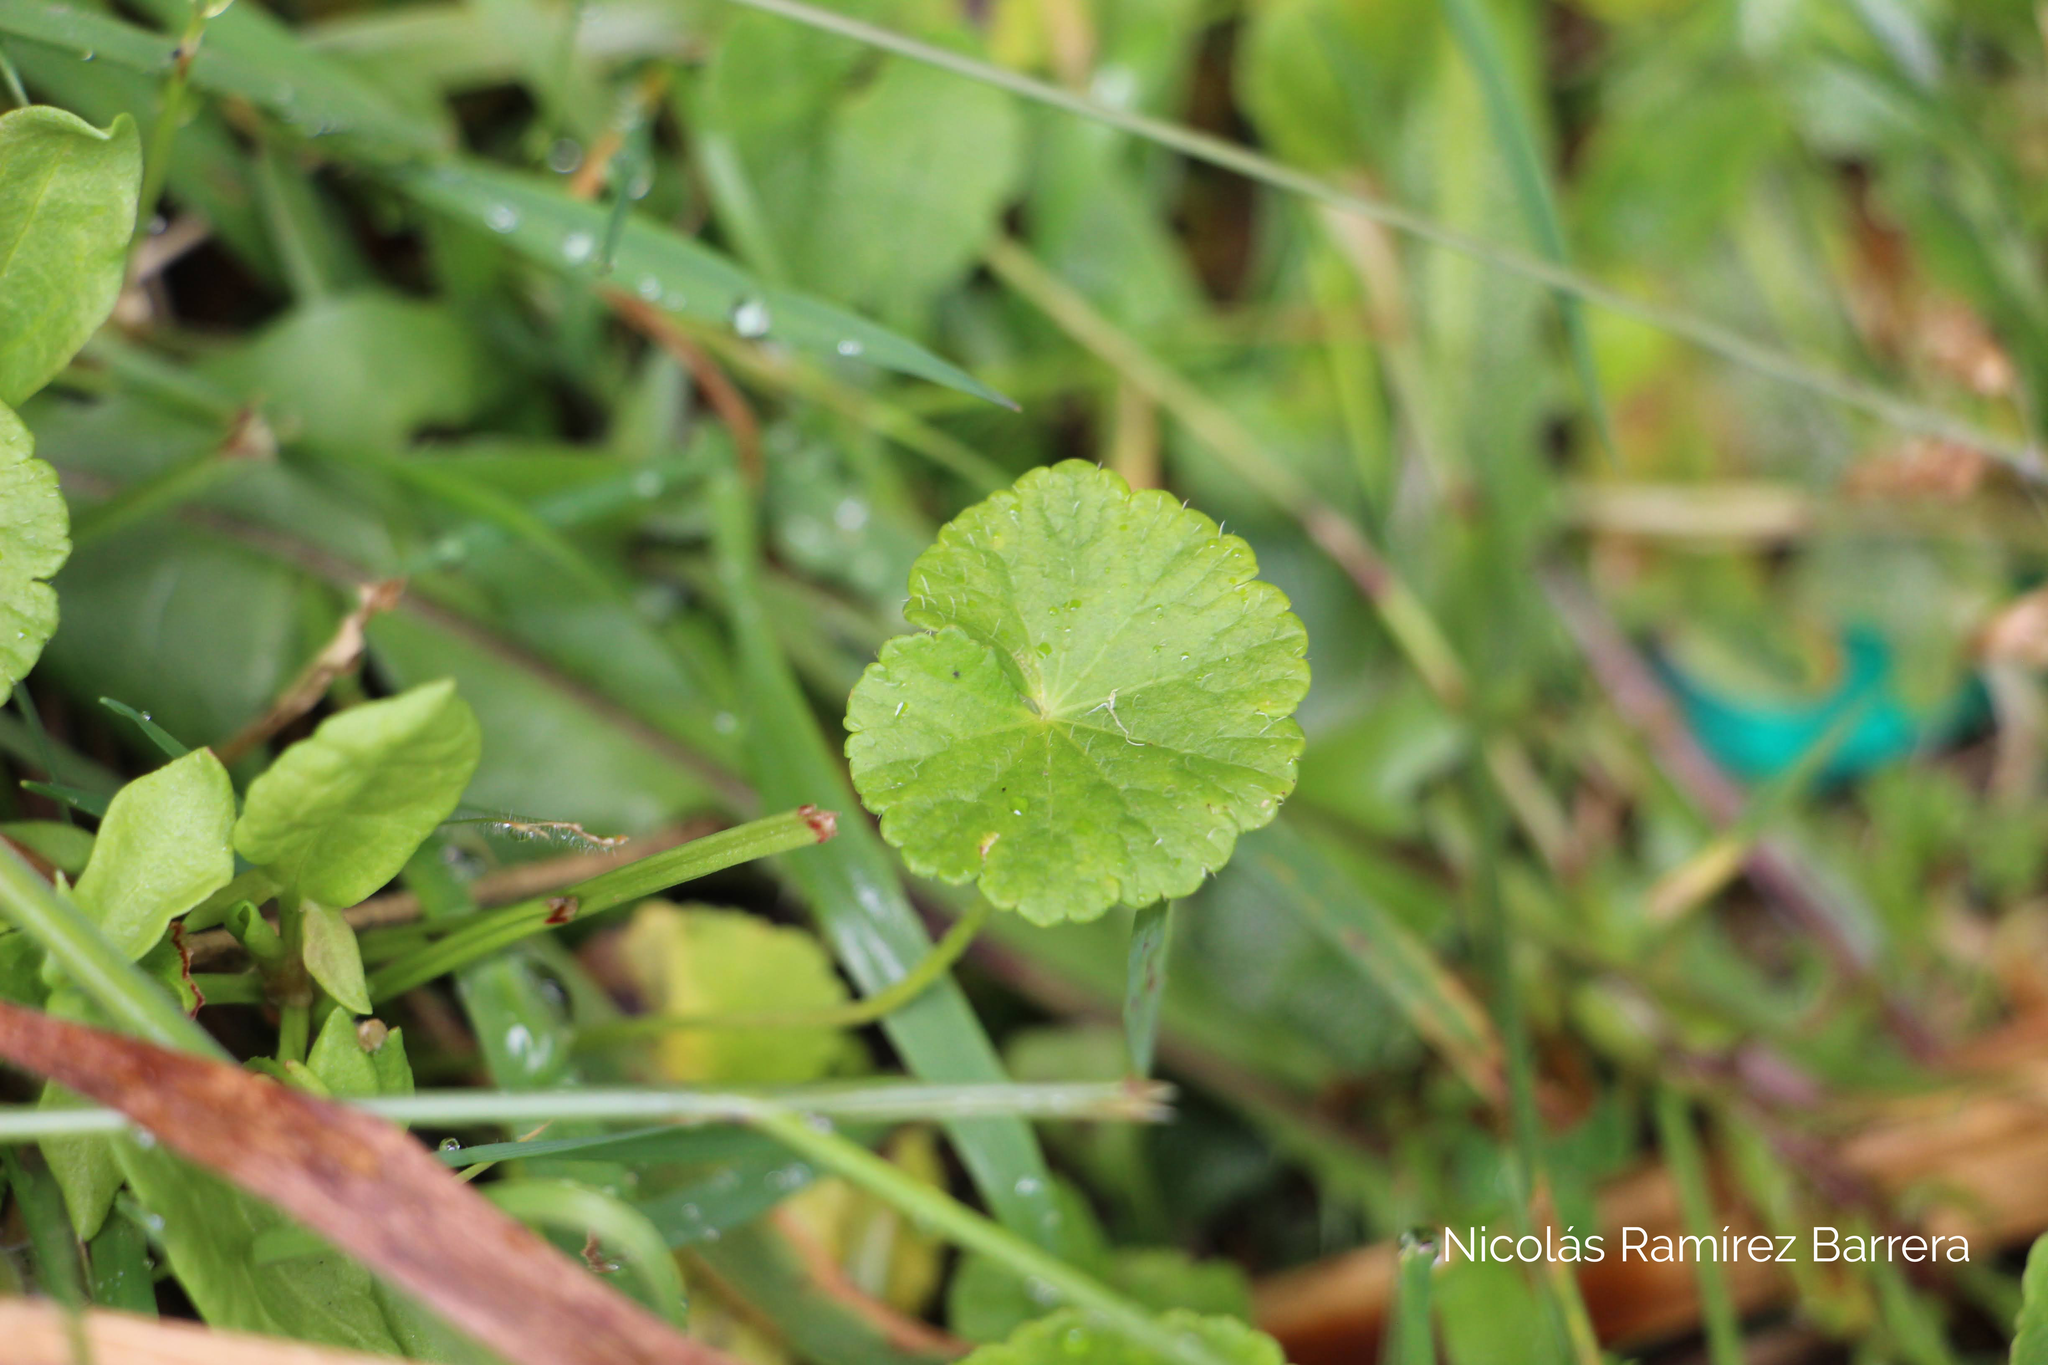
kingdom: Plantae
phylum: Tracheophyta
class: Magnoliopsida
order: Apiales
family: Araliaceae
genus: Hydrocotyle
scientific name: Hydrocotyle bonplandii
